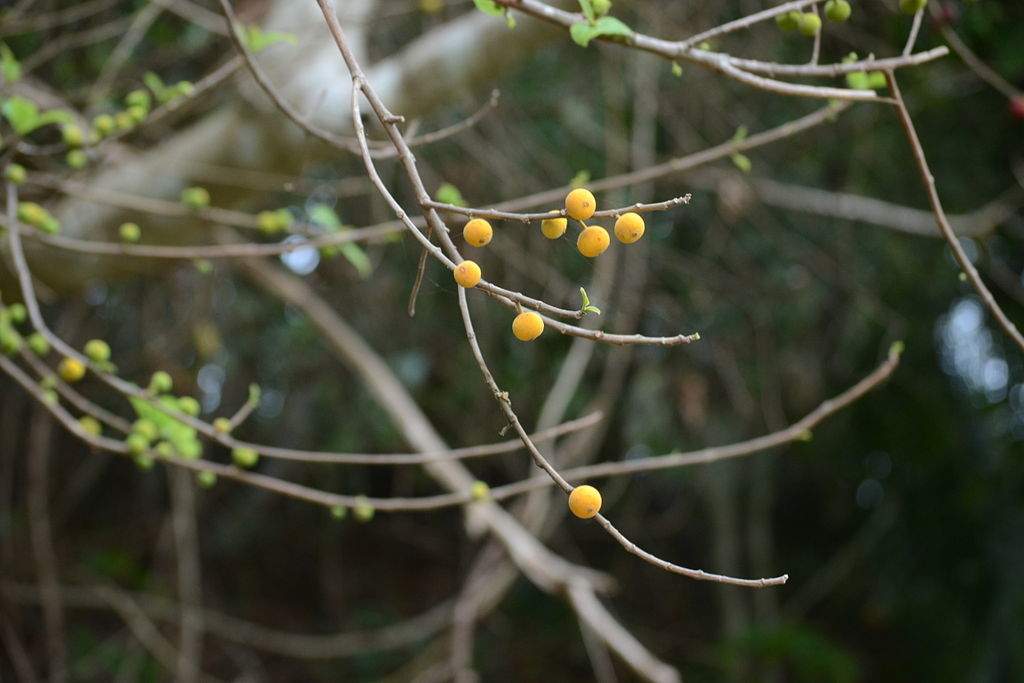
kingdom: Plantae
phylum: Tracheophyta
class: Magnoliopsida
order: Rosales
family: Moraceae
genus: Ficus
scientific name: Ficus exasperata
